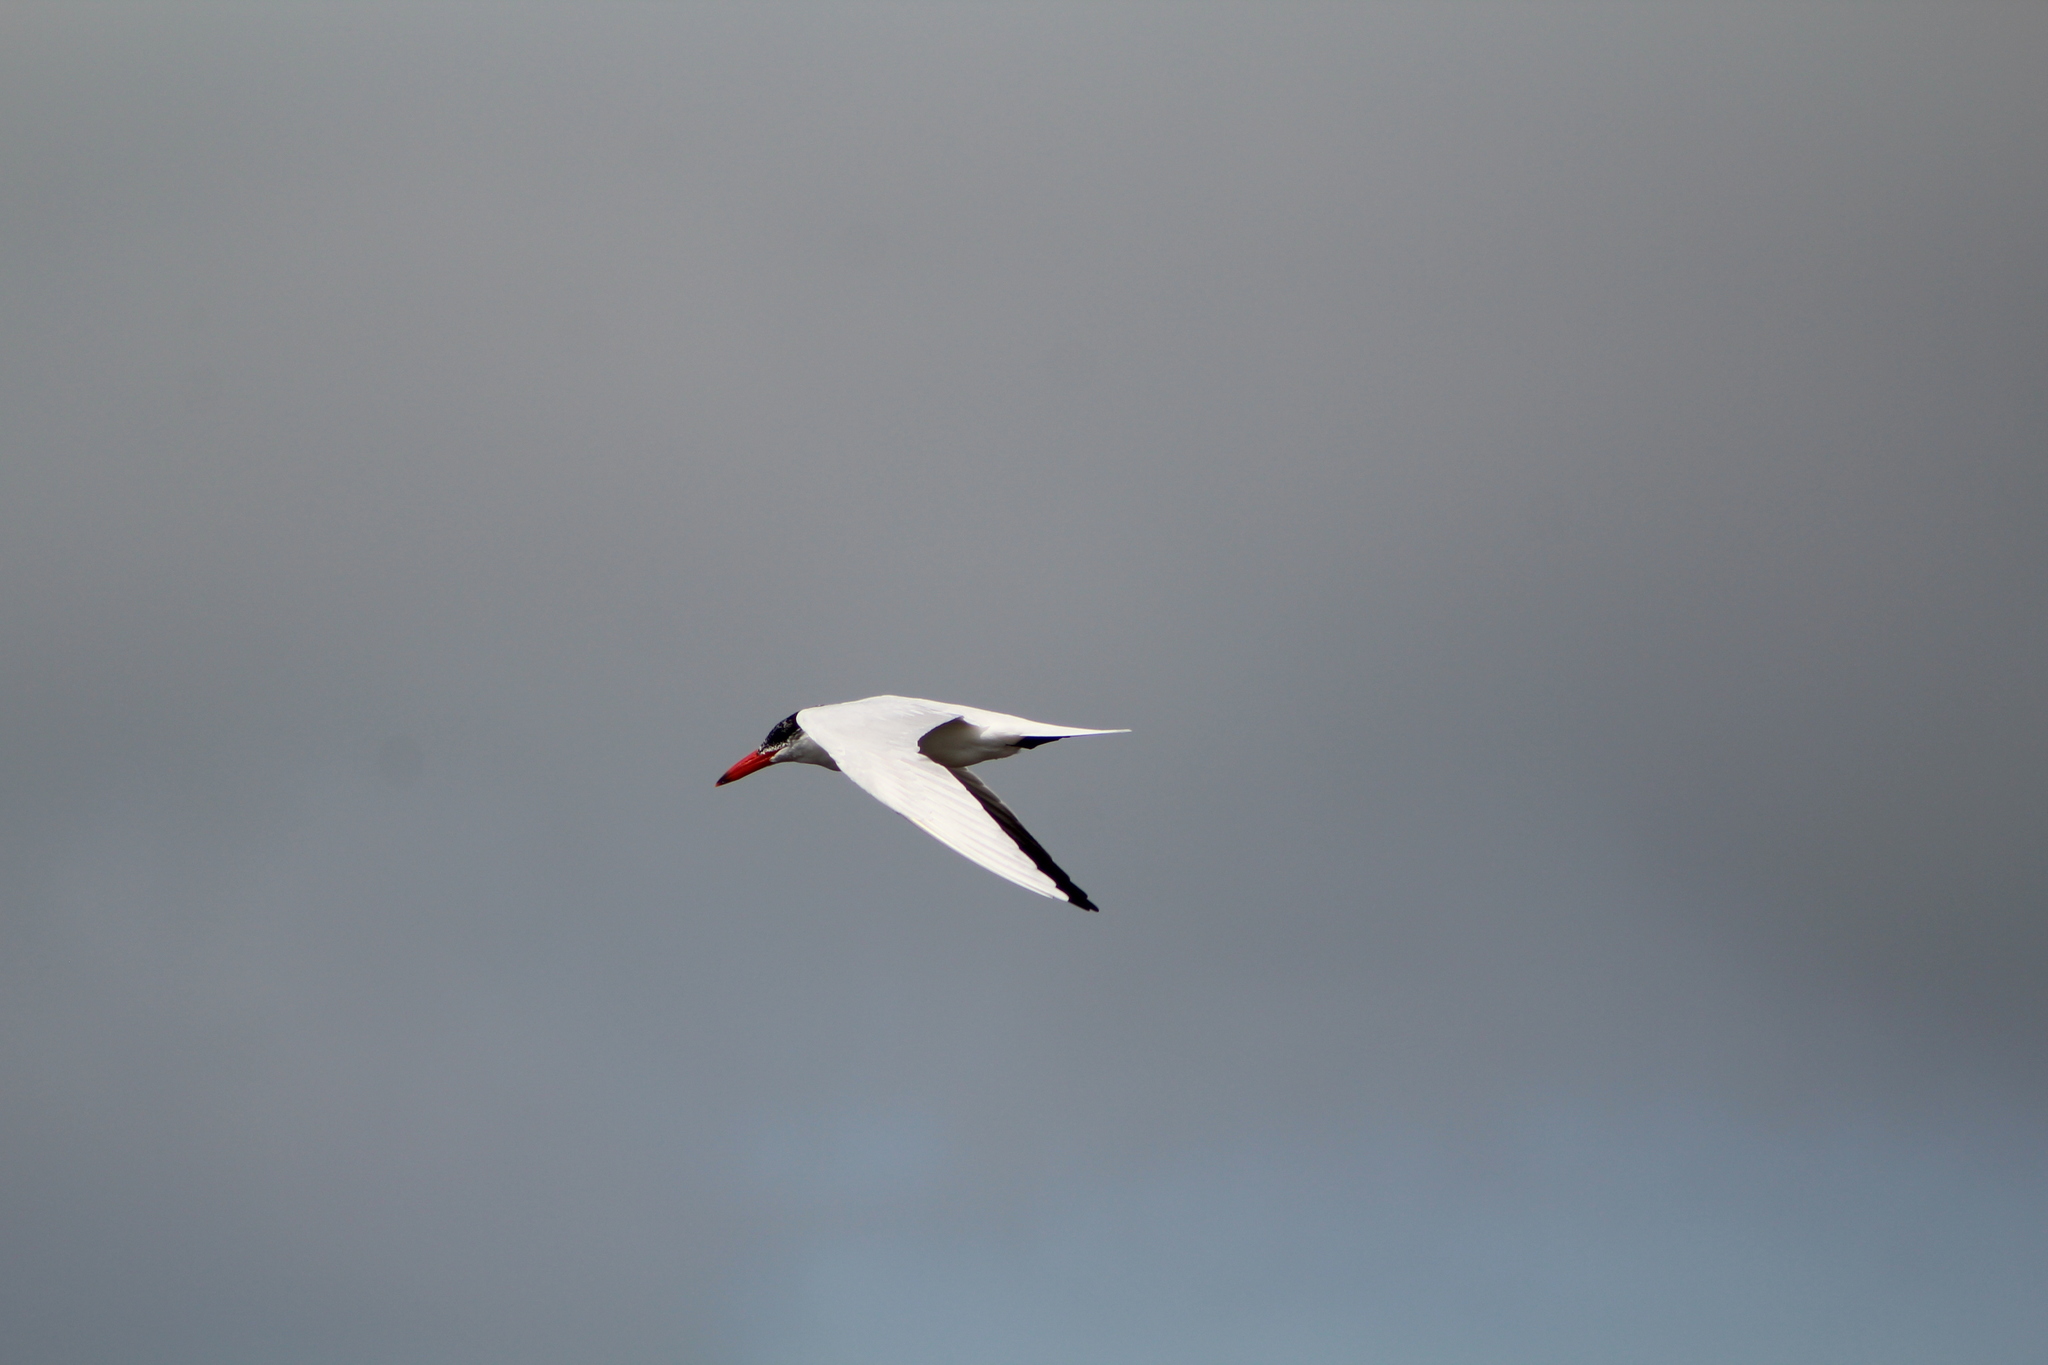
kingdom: Animalia
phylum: Chordata
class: Aves
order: Charadriiformes
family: Laridae
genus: Hydroprogne
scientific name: Hydroprogne caspia
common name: Caspian tern
